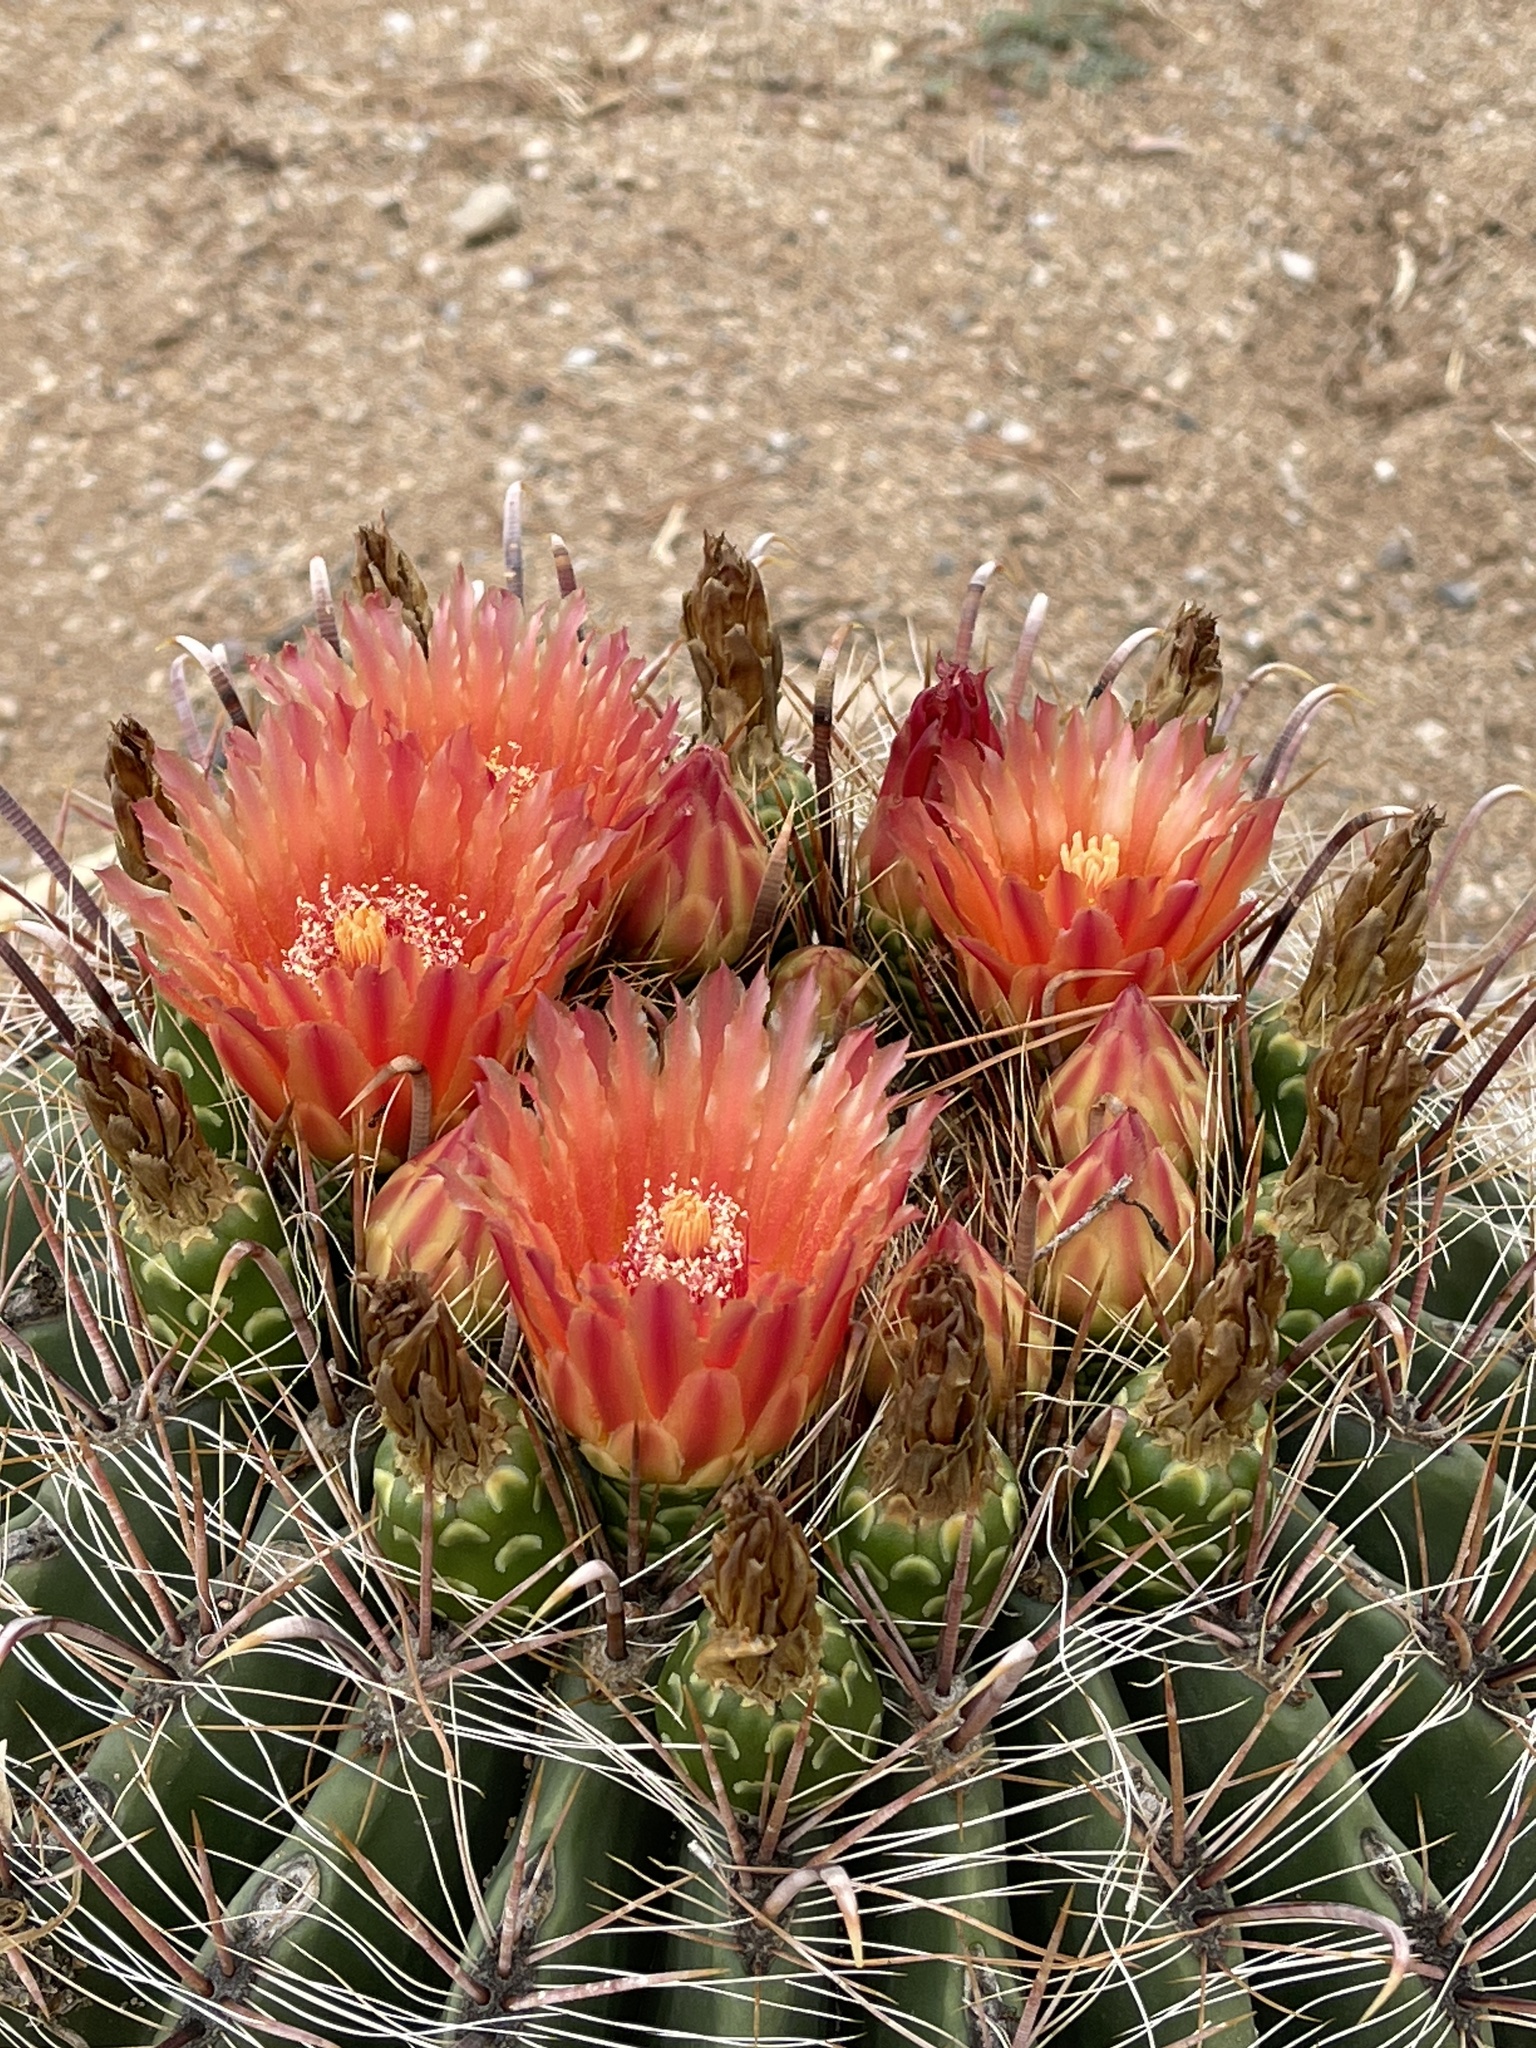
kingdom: Plantae
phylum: Tracheophyta
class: Magnoliopsida
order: Caryophyllales
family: Cactaceae
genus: Ferocactus
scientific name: Ferocactus wislizeni
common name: Candy barrel cactus
